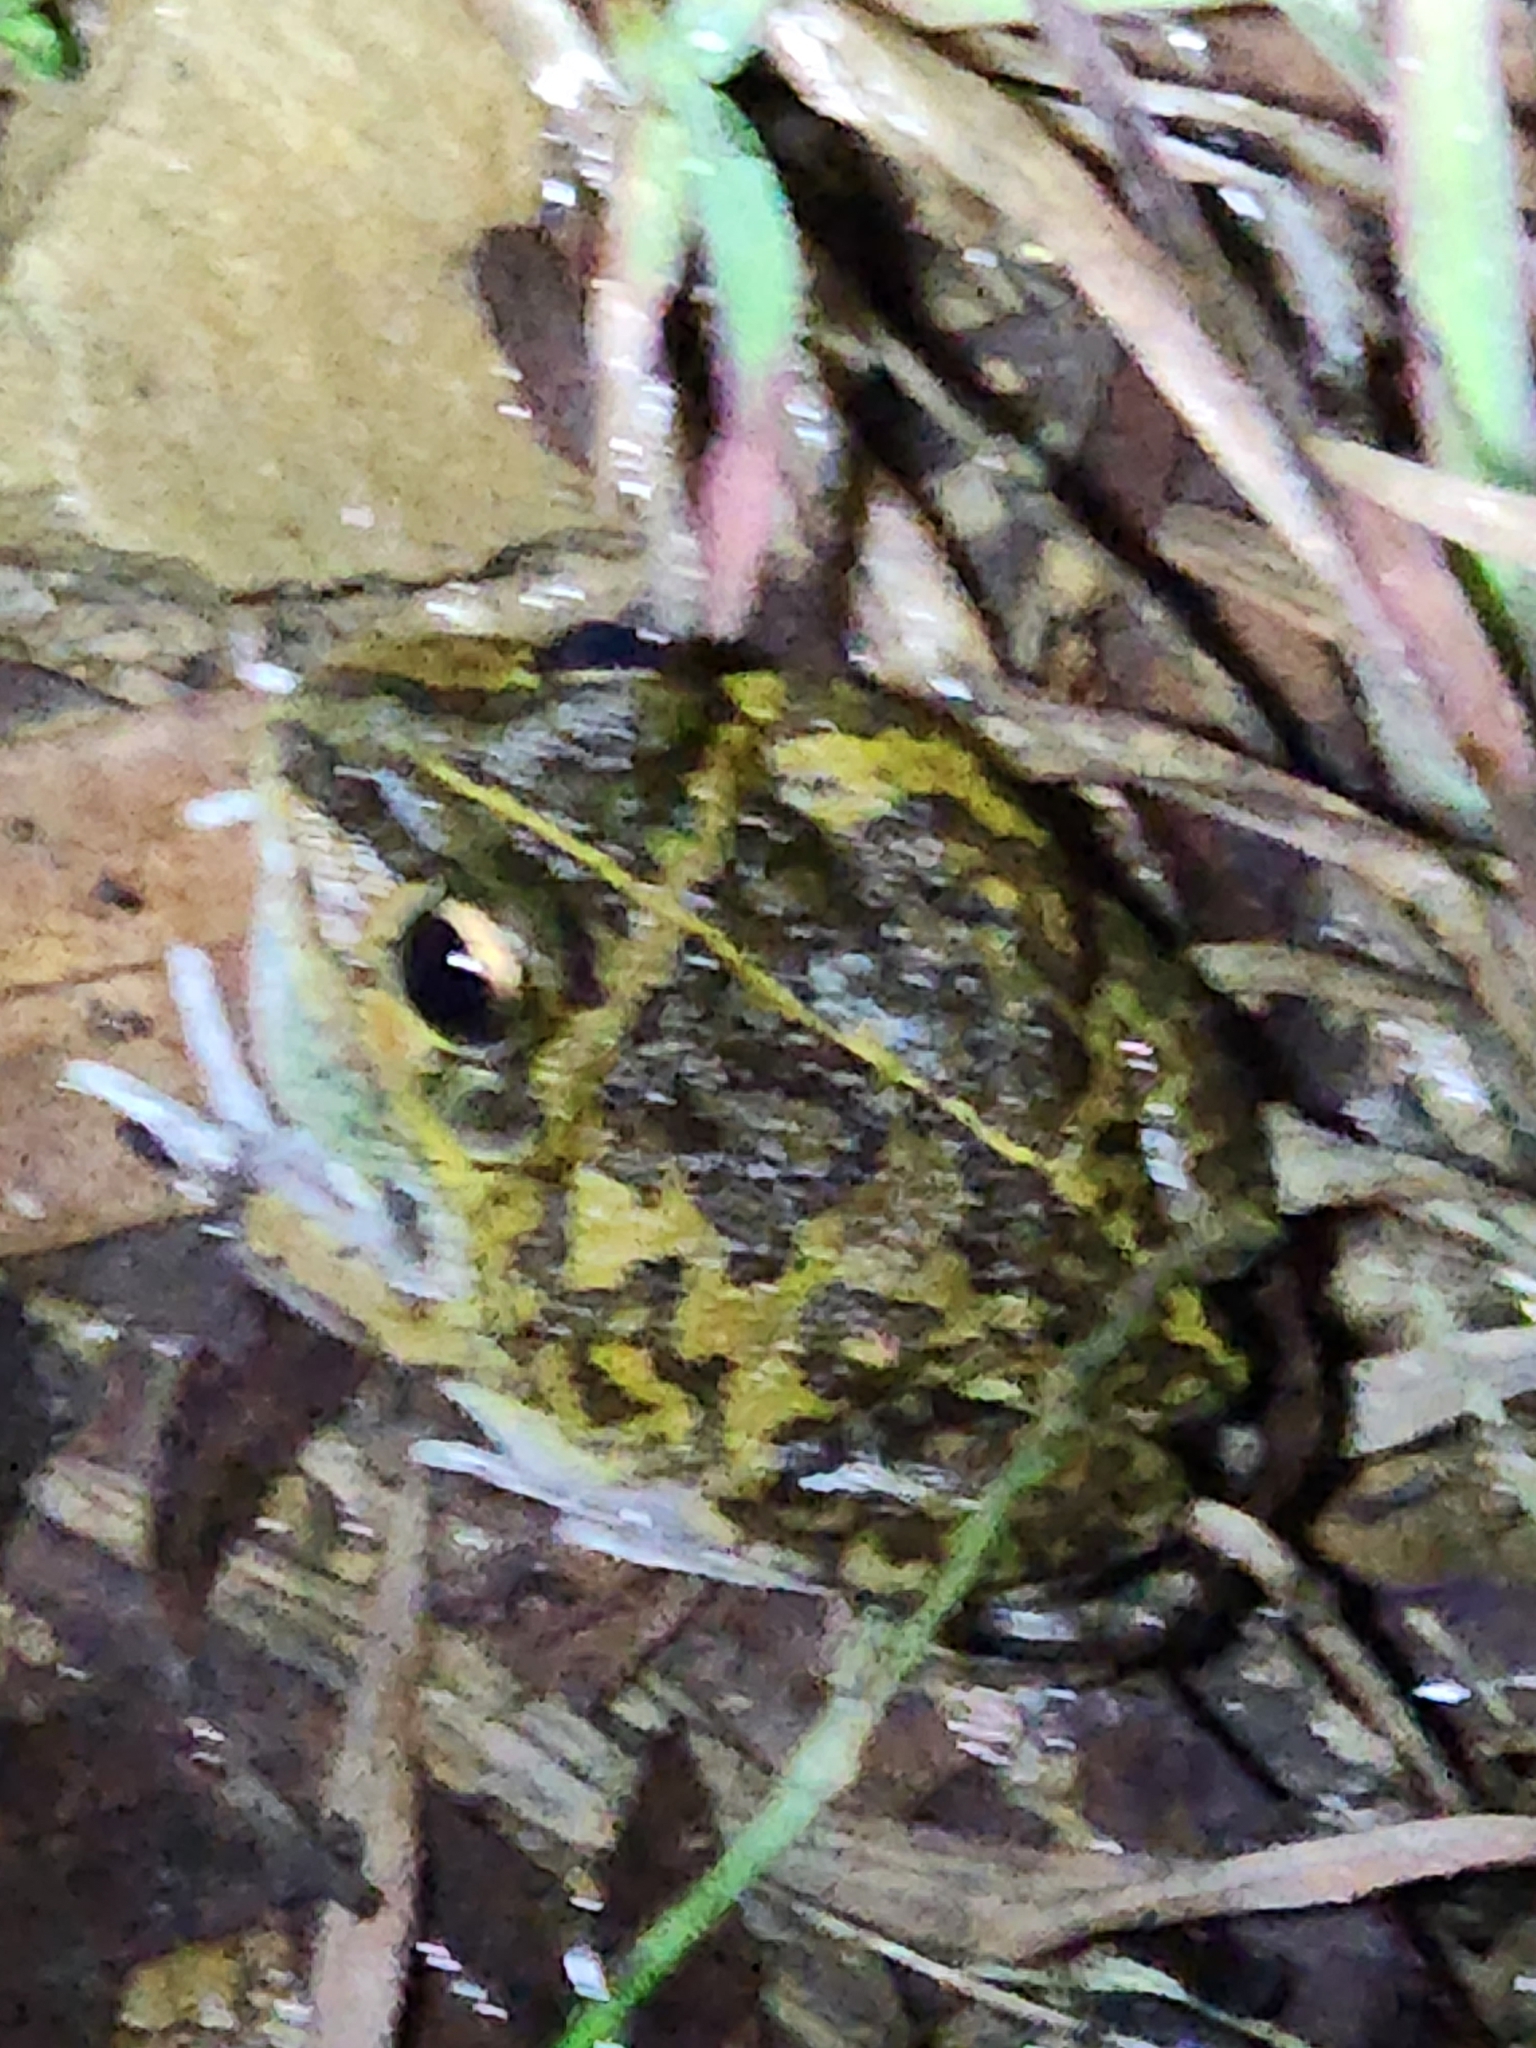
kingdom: Animalia
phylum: Chordata
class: Amphibia
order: Anura
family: Pelodryadidae
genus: Ranoidea
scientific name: Ranoidea brevipes
